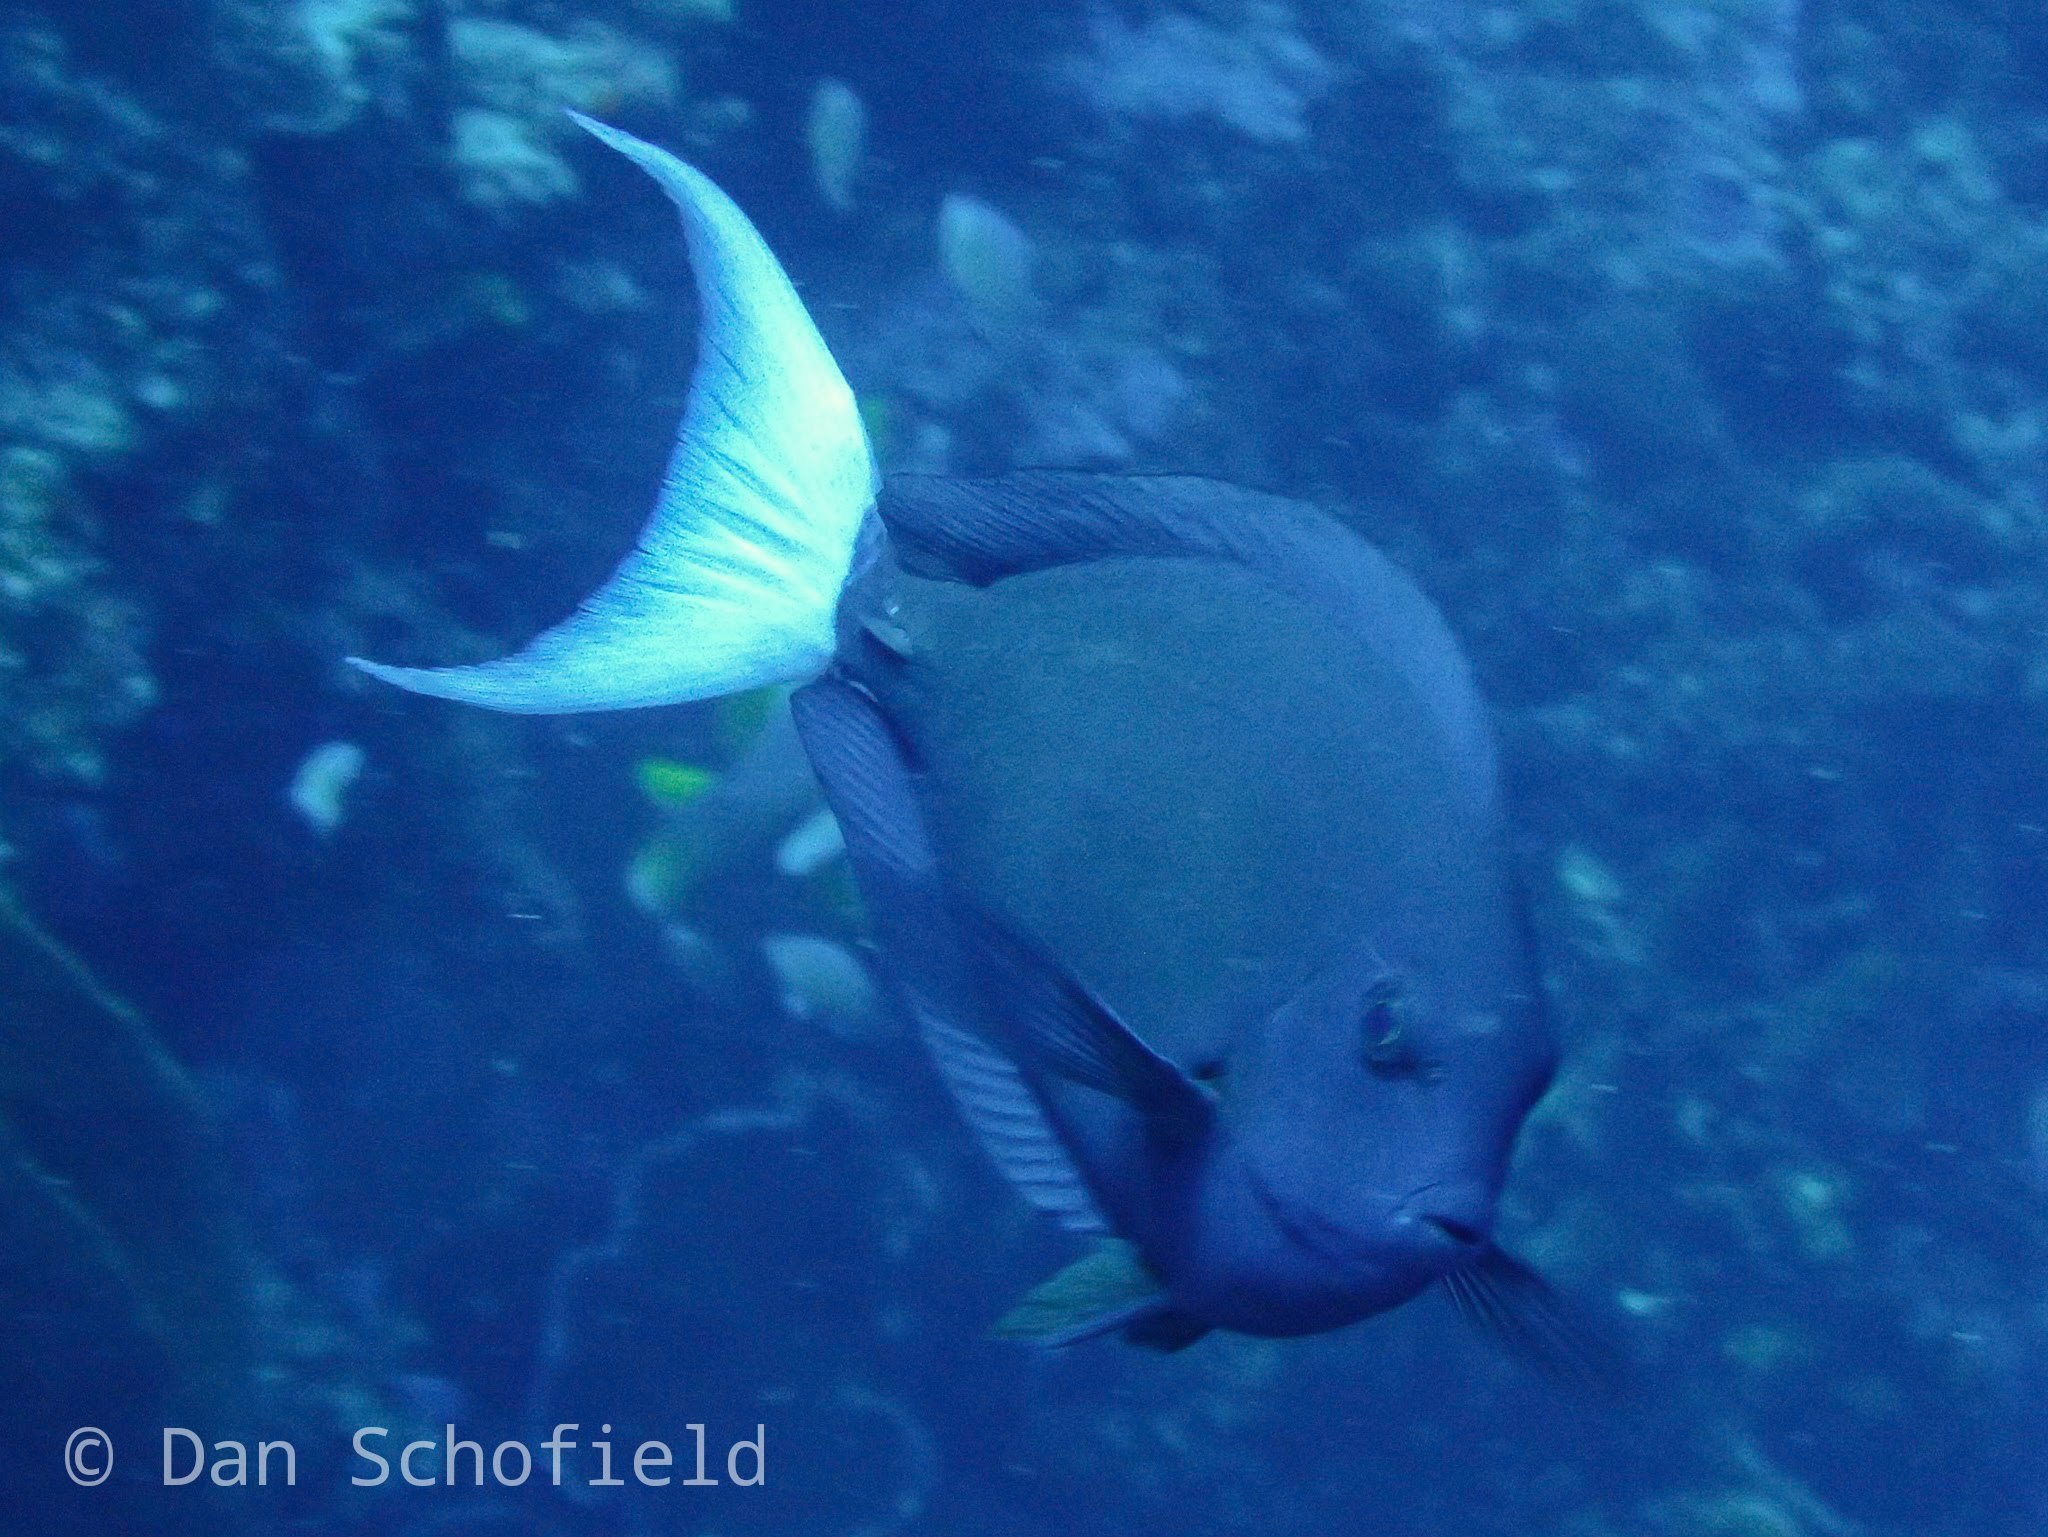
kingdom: Animalia
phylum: Chordata
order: Perciformes
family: Acanthuridae
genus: Acanthurus
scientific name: Acanthurus thompsoni
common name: Chocolate surgeonfish
